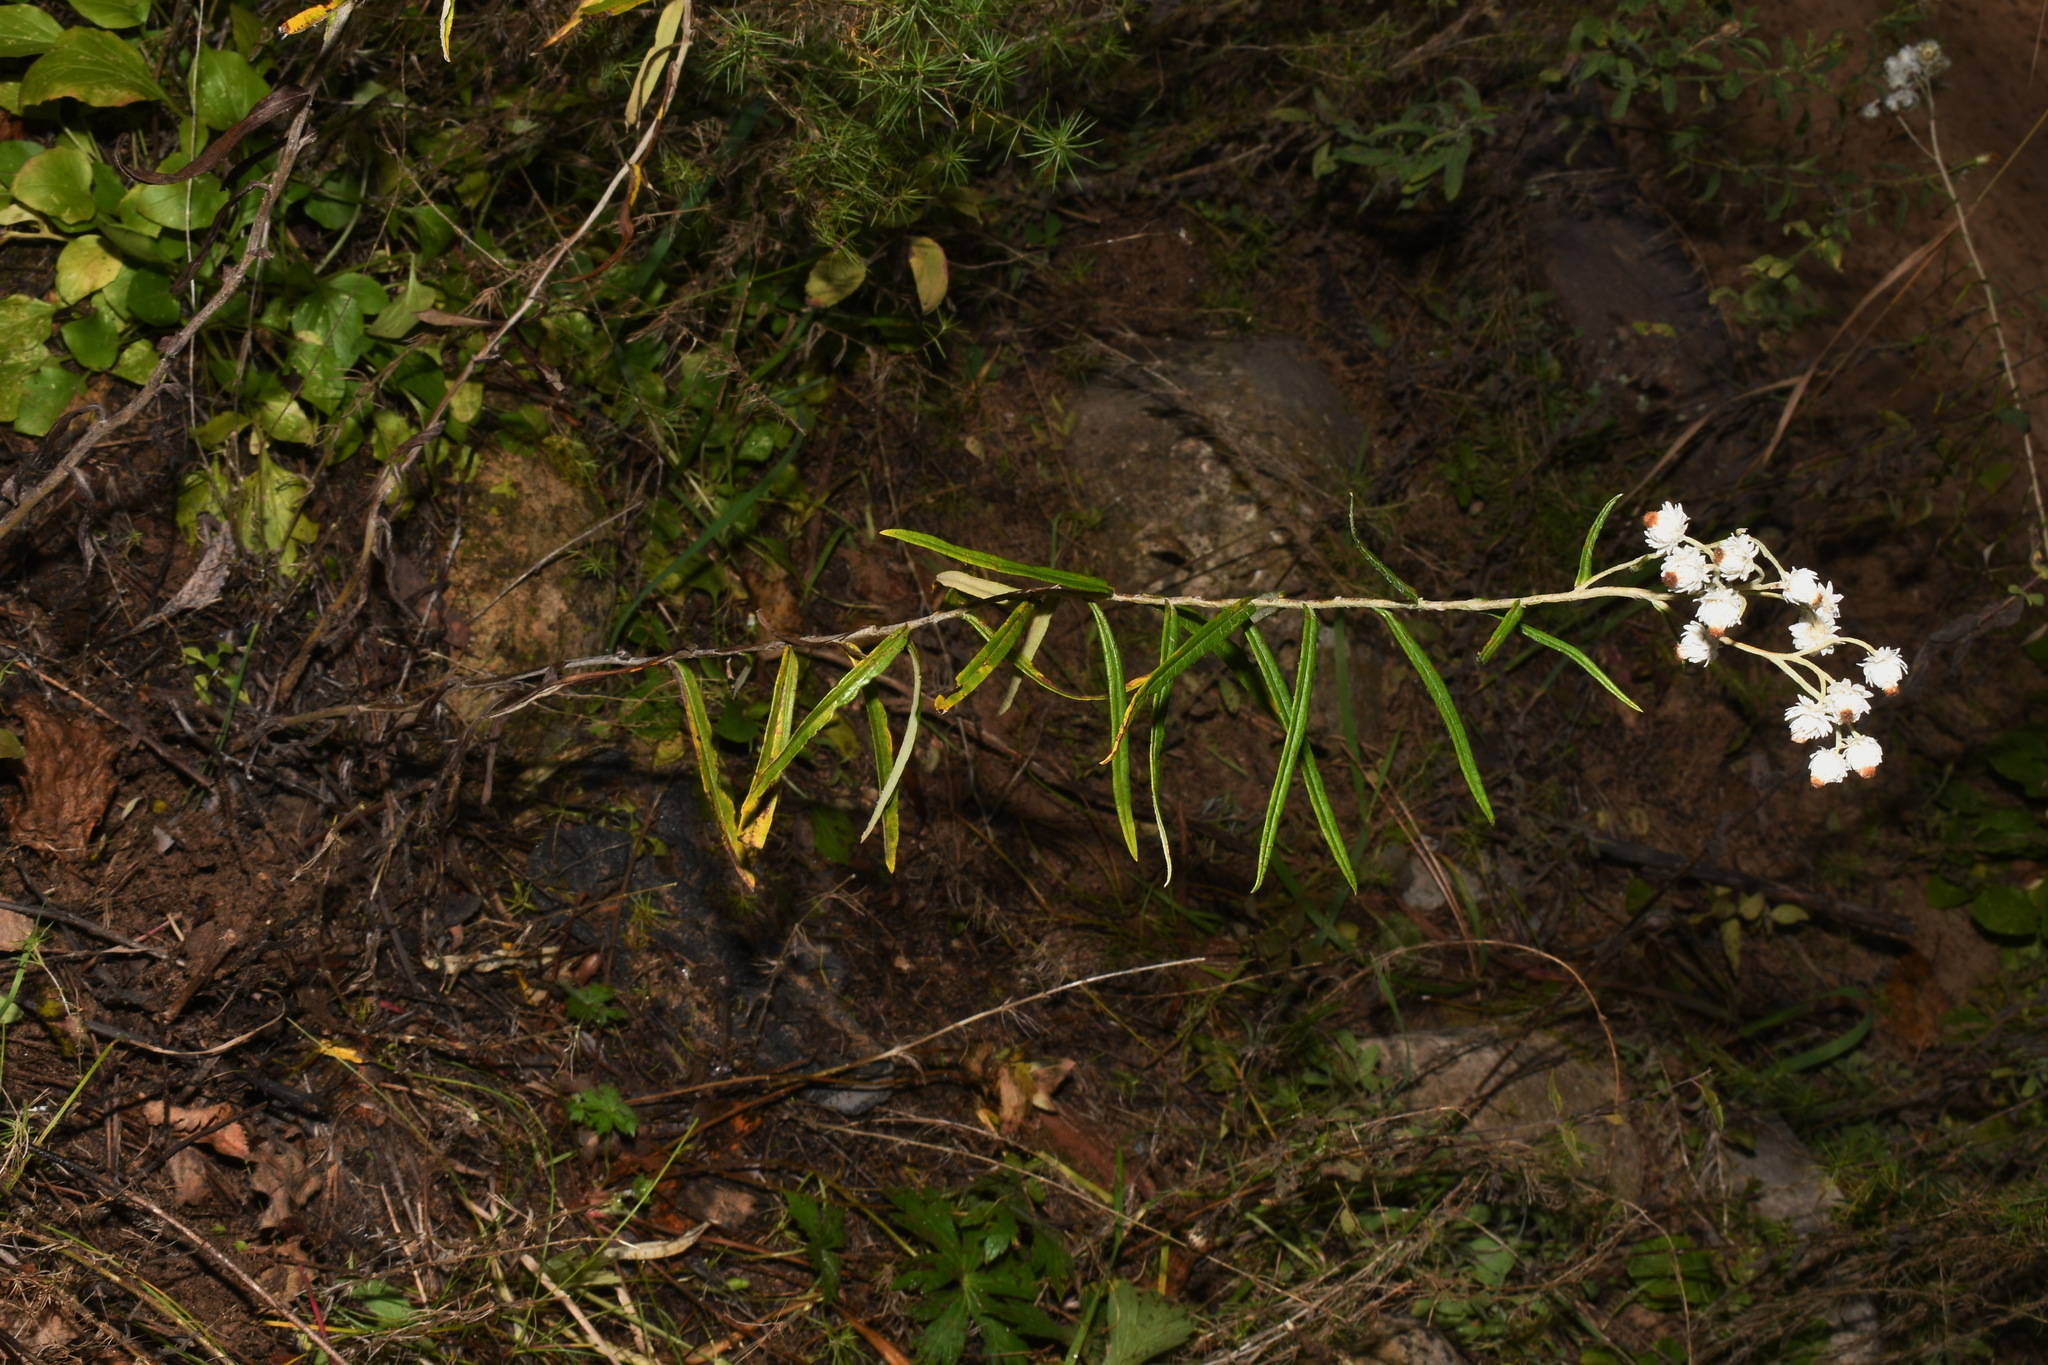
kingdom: Plantae
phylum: Tracheophyta
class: Magnoliopsida
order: Asterales
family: Asteraceae
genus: Anaphalis
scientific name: Anaphalis margaritacea
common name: Pearly everlasting
